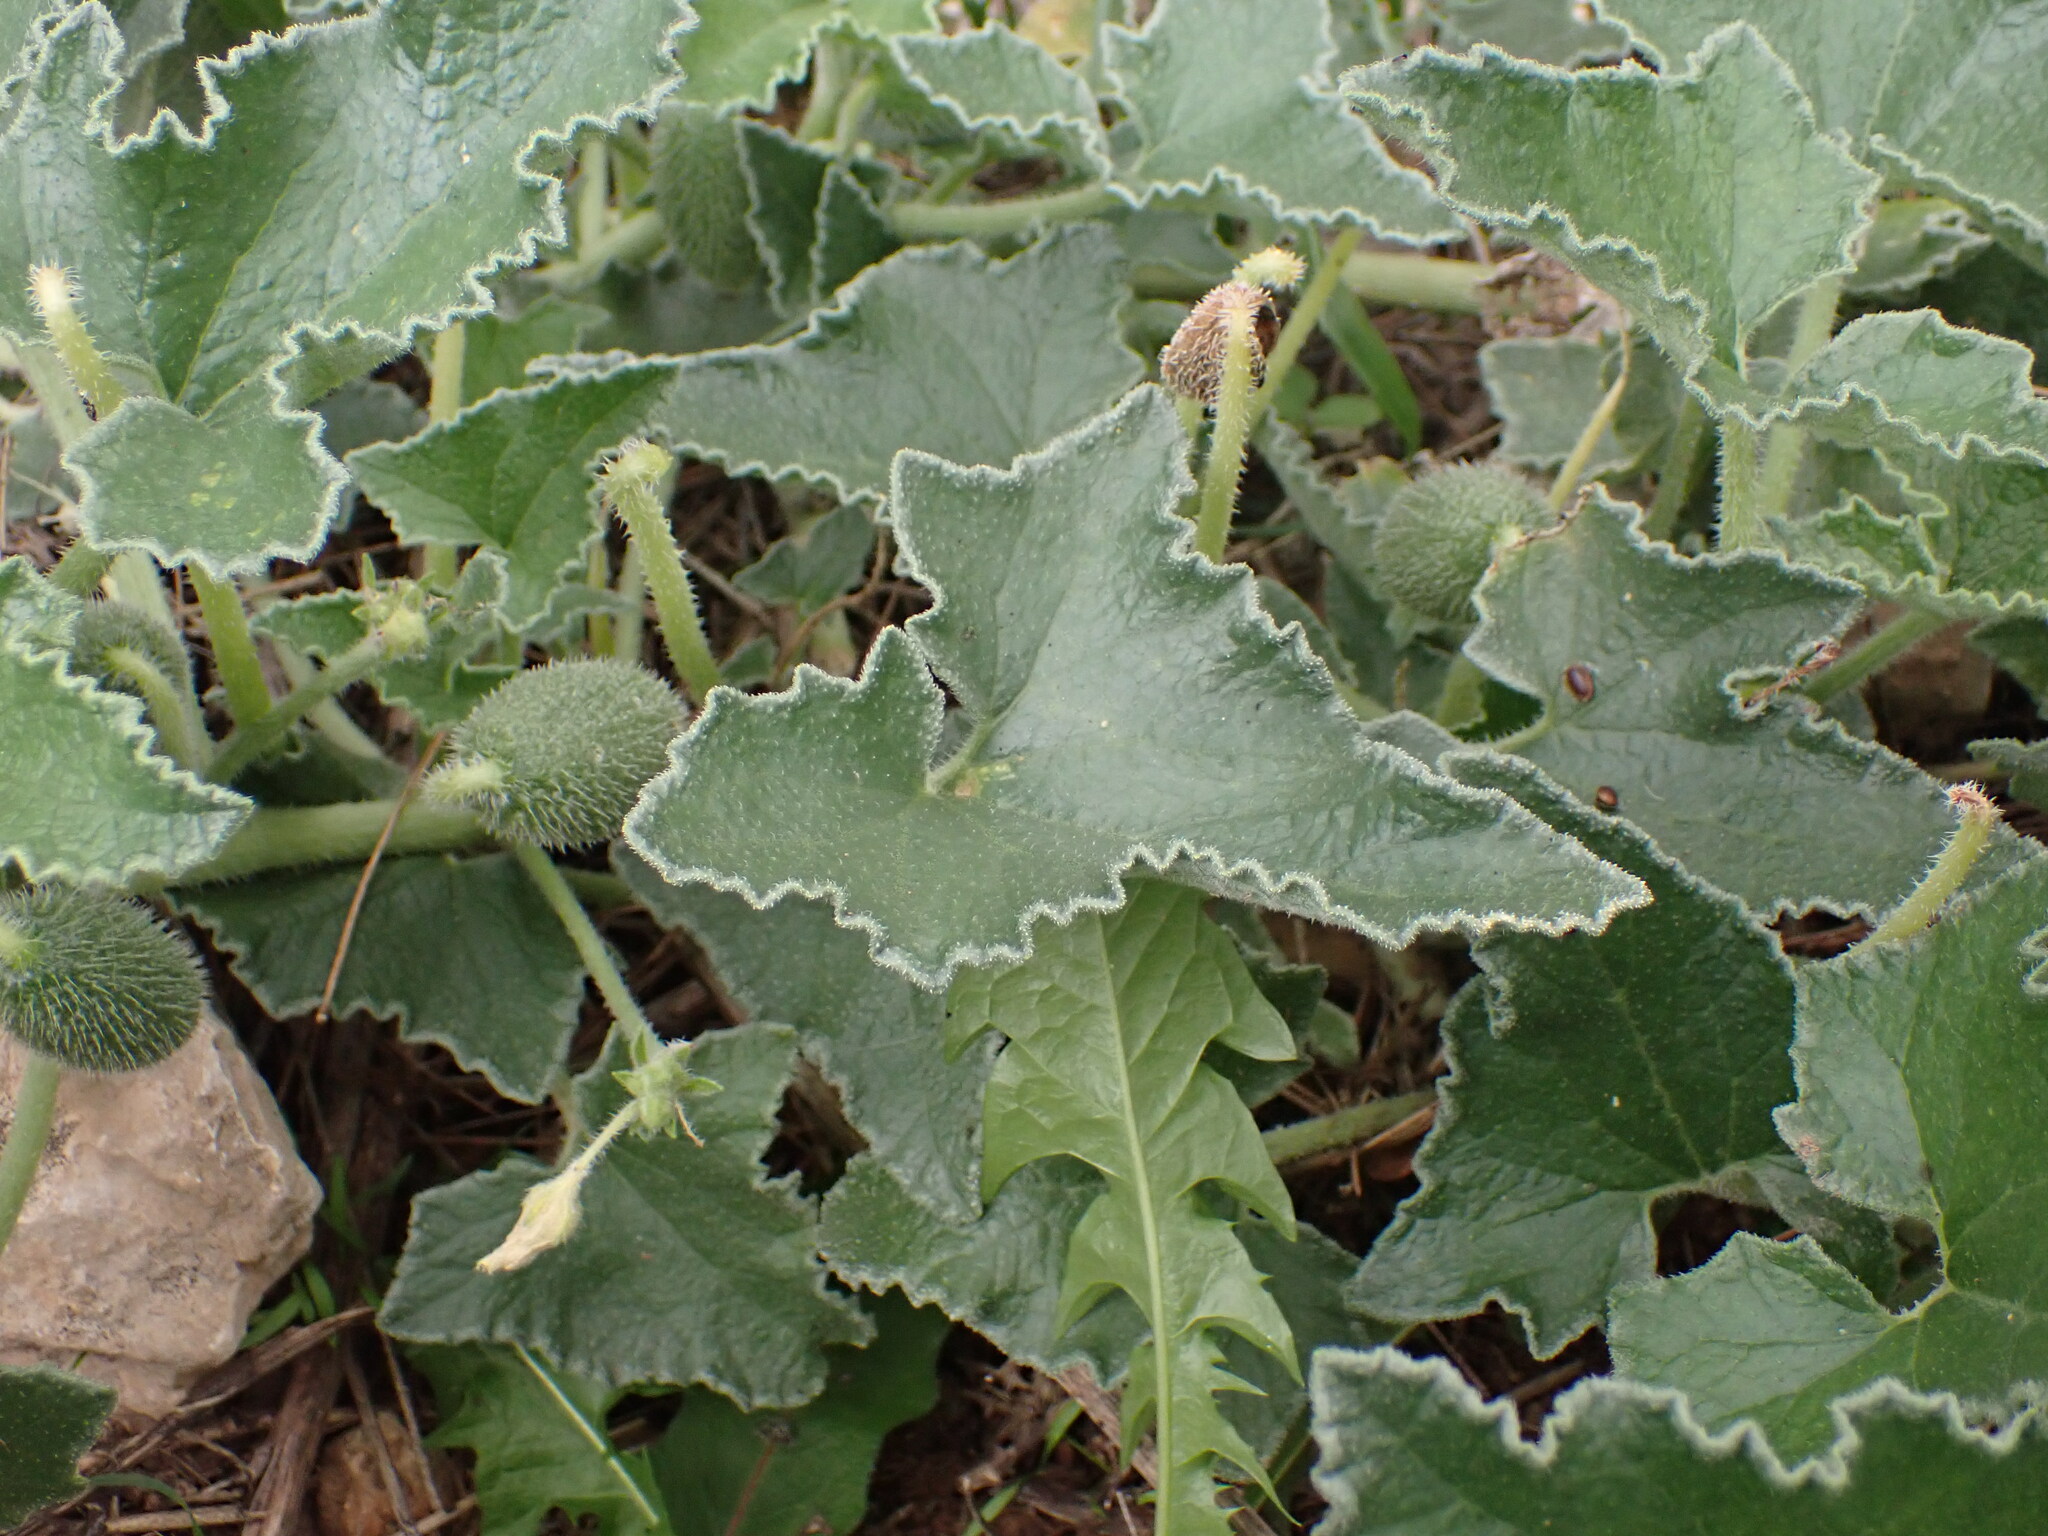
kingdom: Plantae
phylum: Tracheophyta
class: Magnoliopsida
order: Cucurbitales
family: Cucurbitaceae
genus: Ecballium
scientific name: Ecballium elaterium
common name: Squirting cucumber
